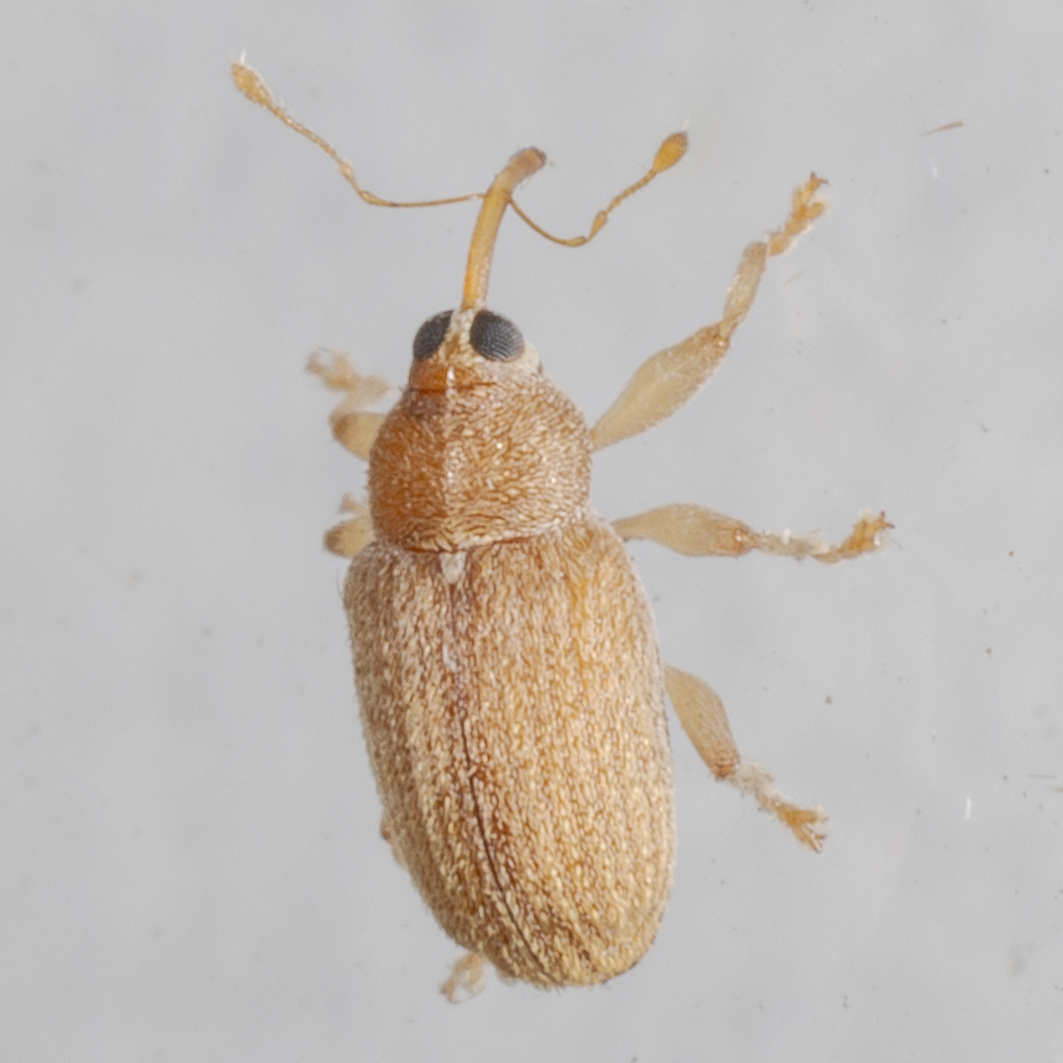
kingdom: Animalia
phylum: Arthropoda
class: Insecta
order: Coleoptera
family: Curculionidae
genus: Lignyodes
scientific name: Lignyodes helvolus
